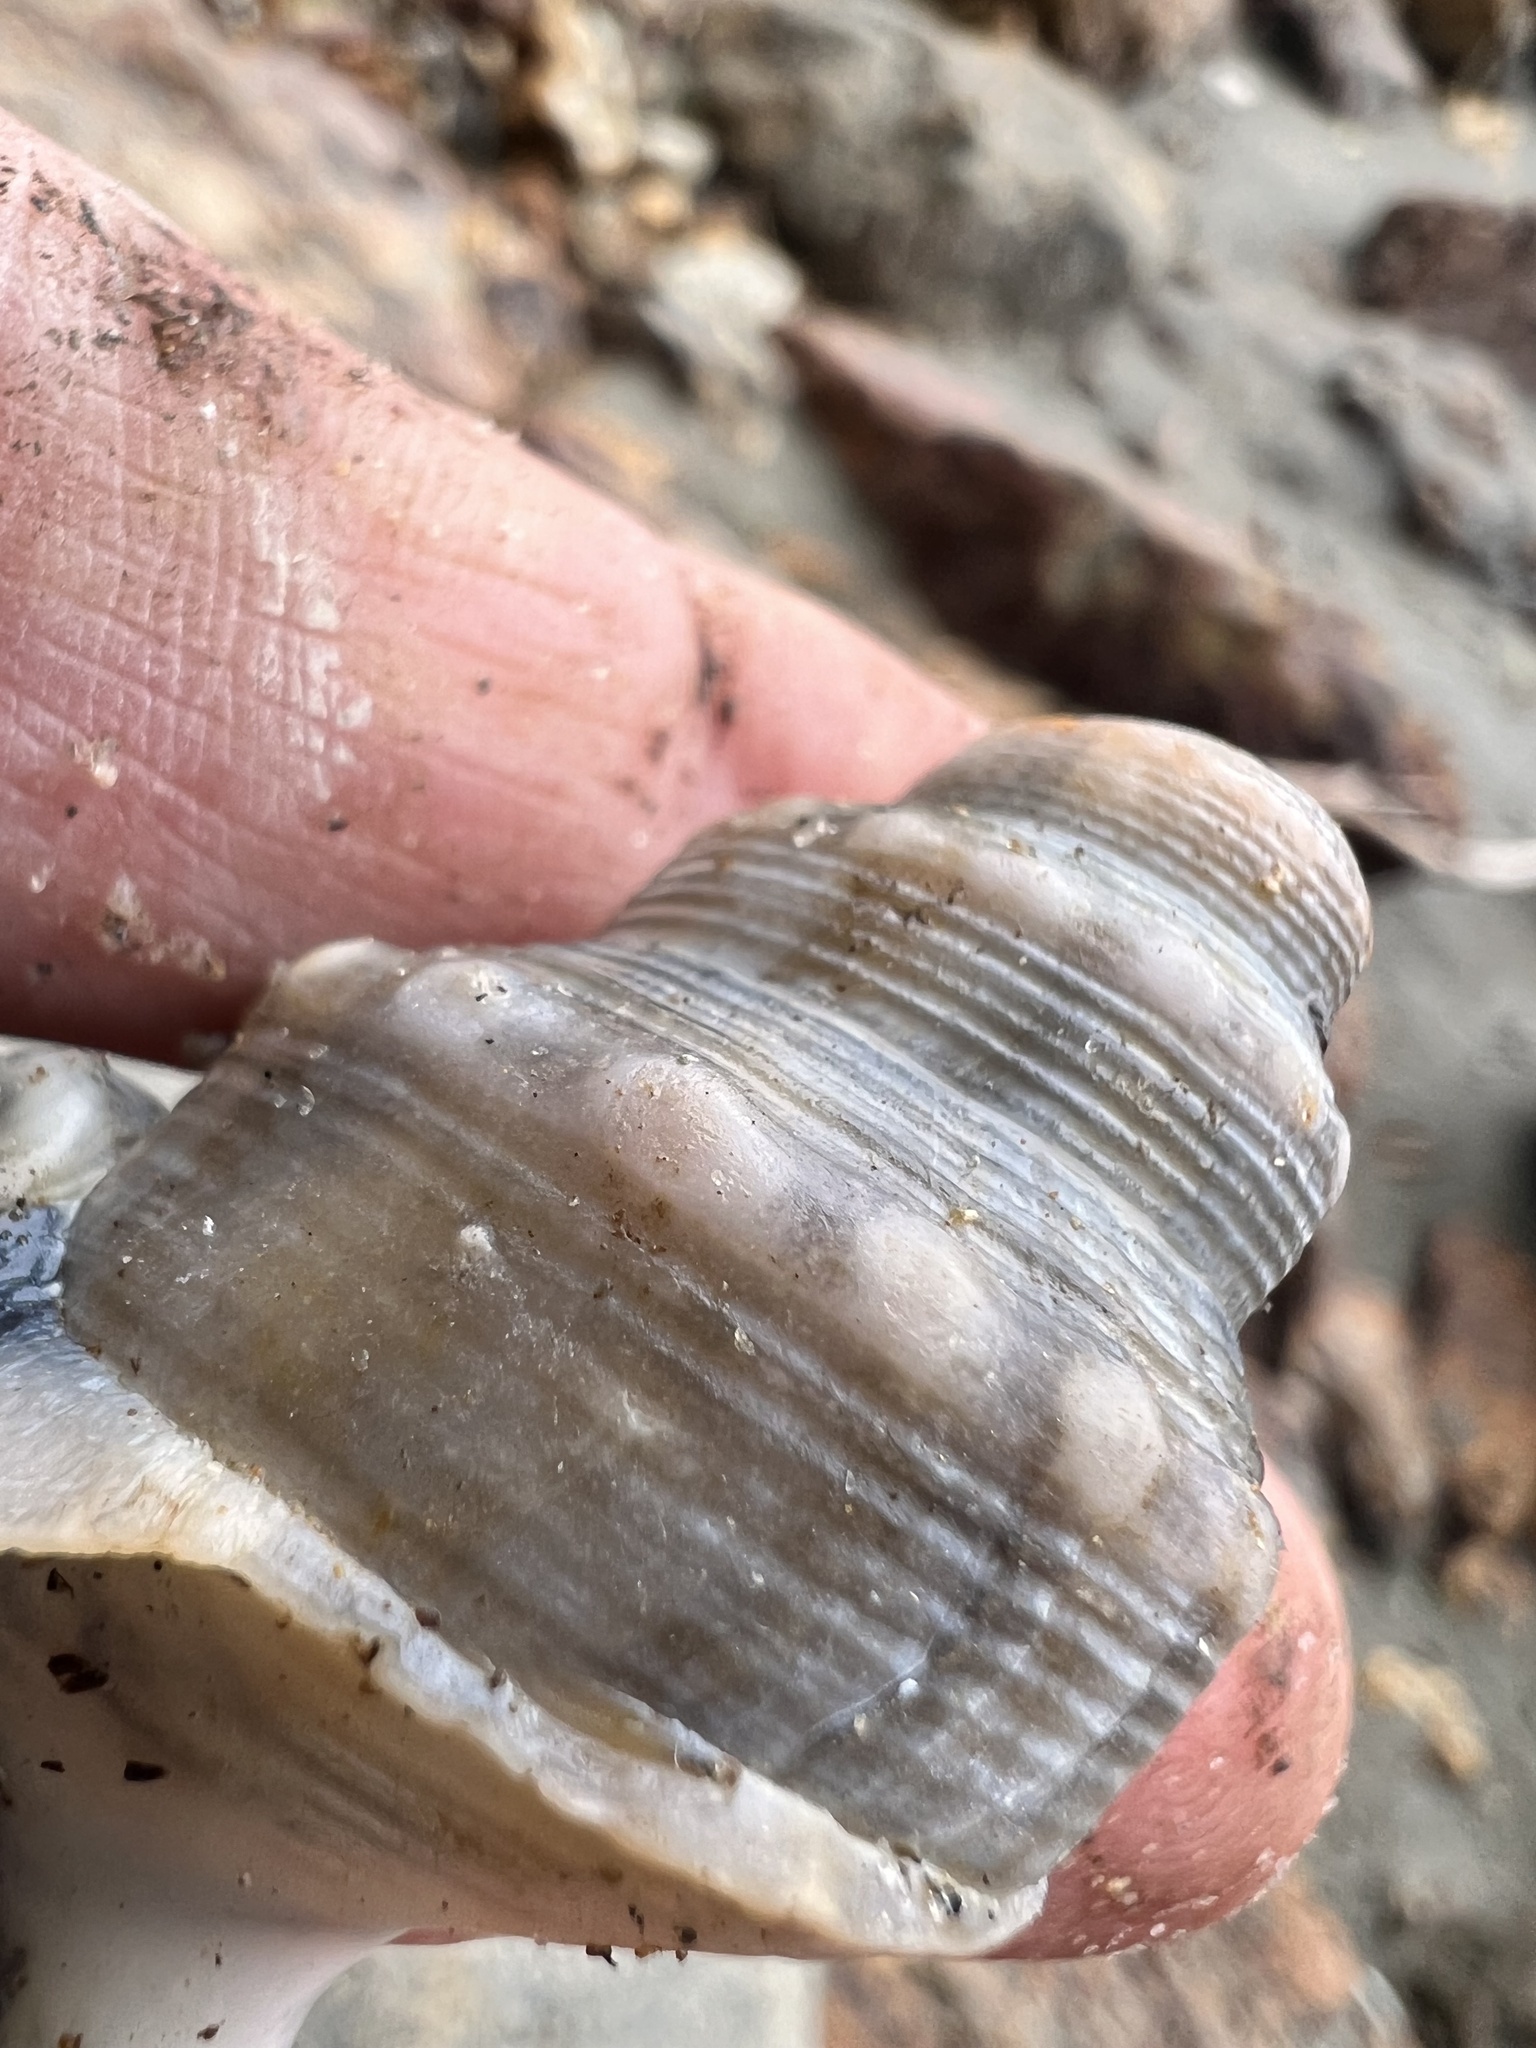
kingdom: Animalia
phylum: Mollusca
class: Gastropoda
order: Littorinimorpha
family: Struthiolariidae
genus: Struthiolaria
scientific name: Struthiolaria papulosa
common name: Large ostrich foot
